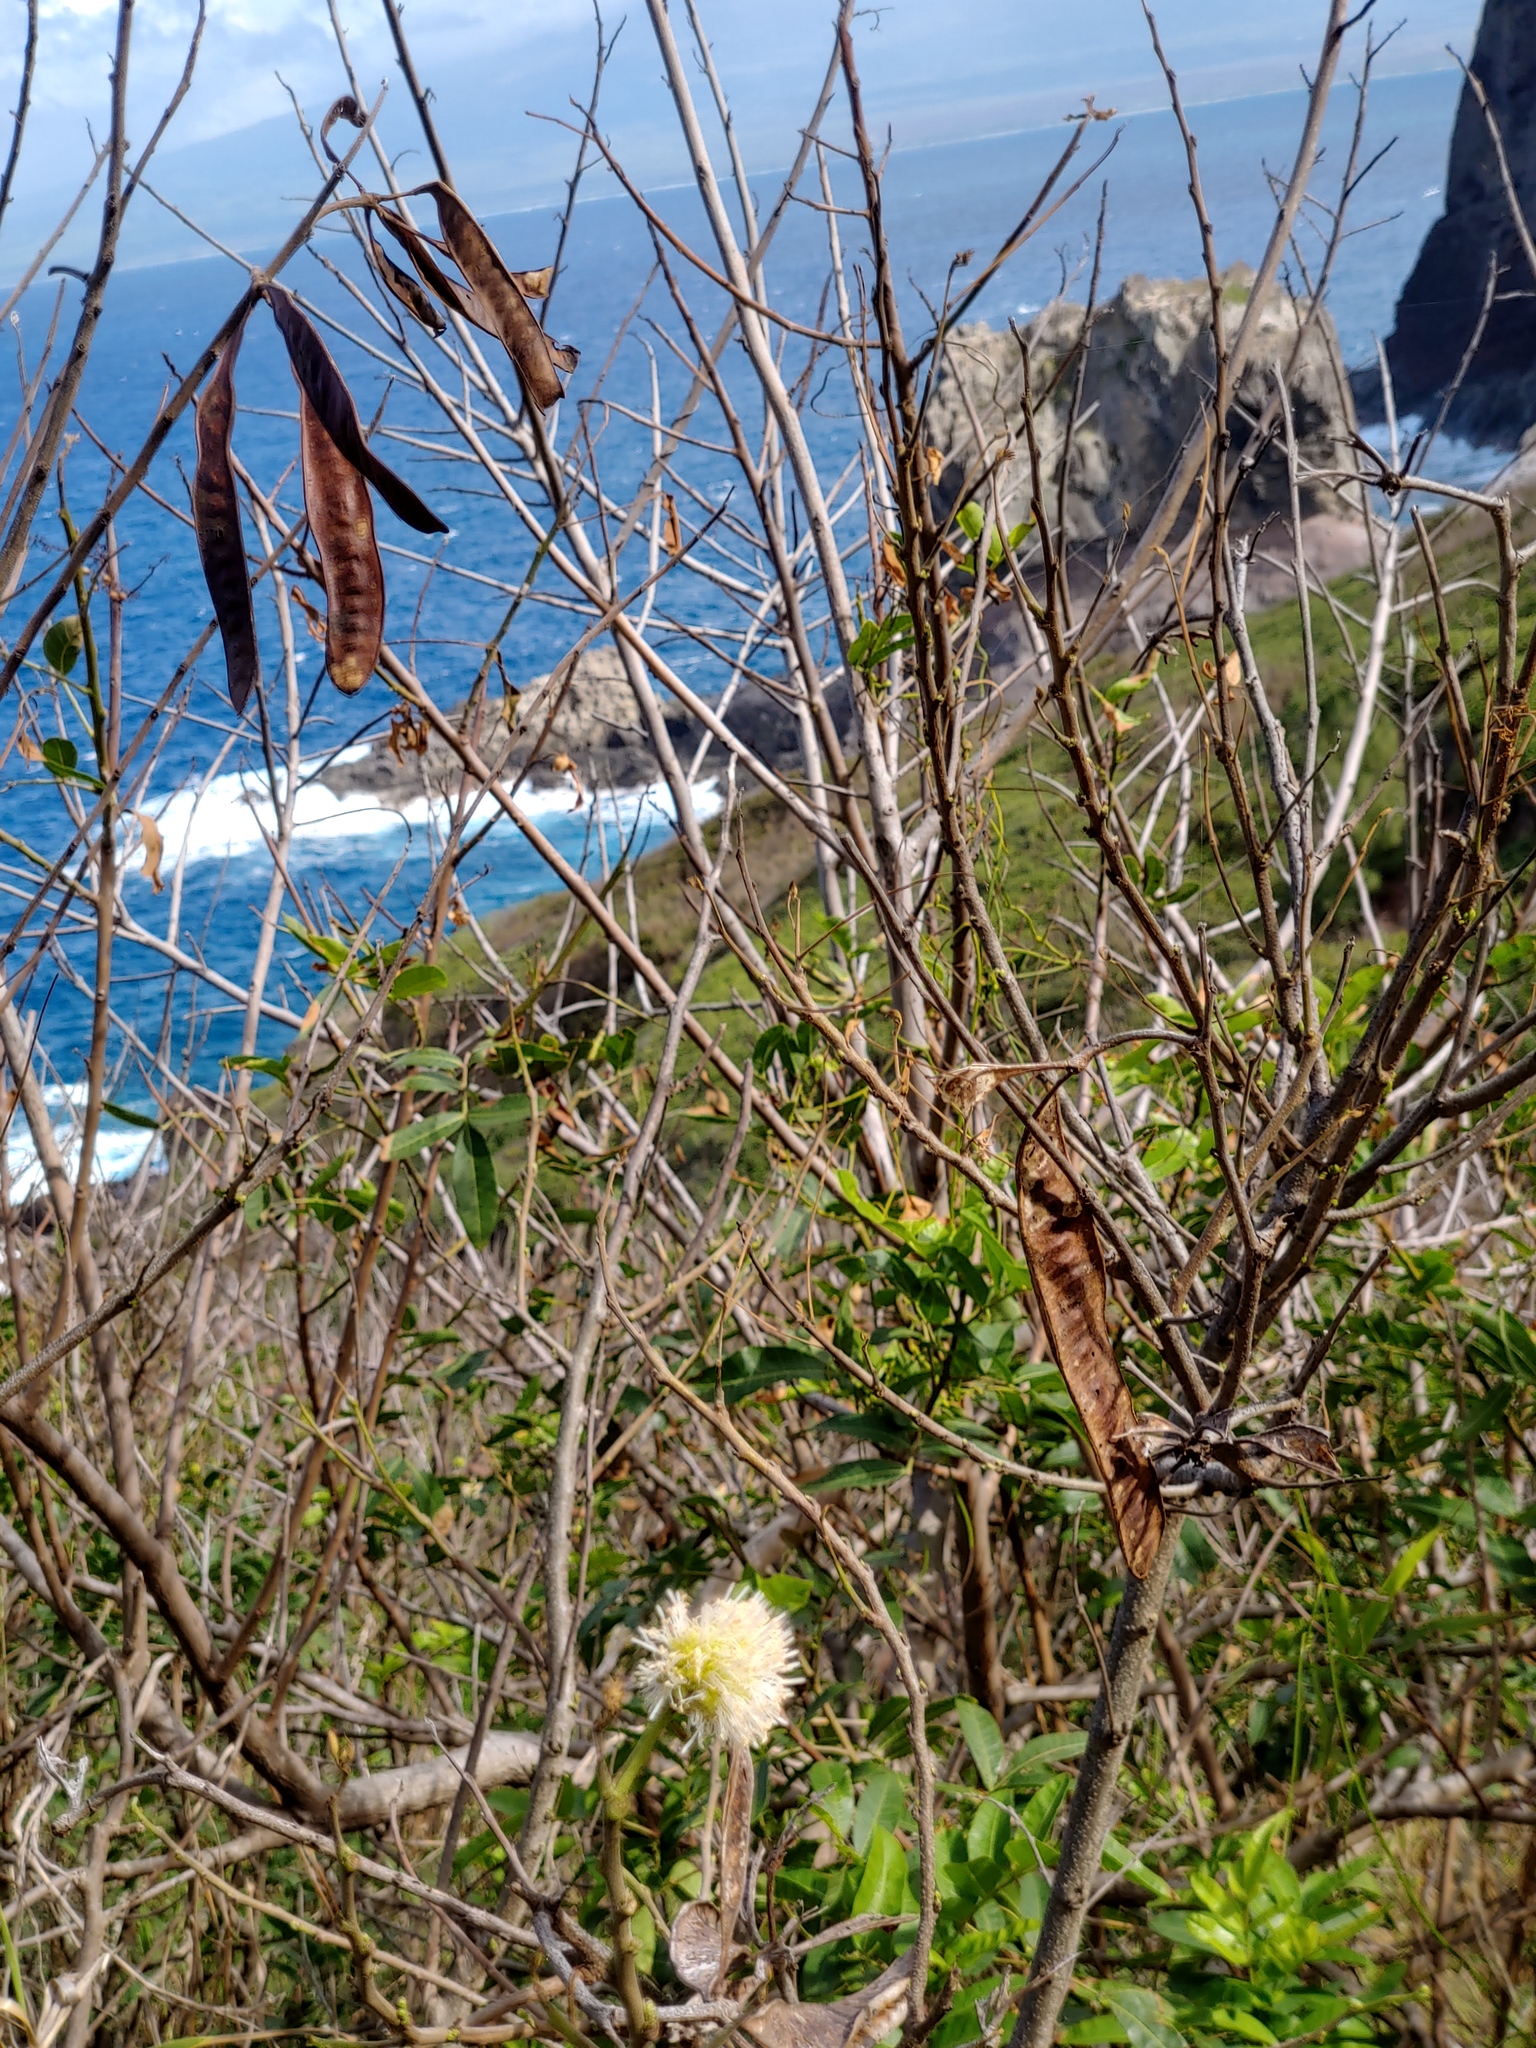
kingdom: Plantae
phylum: Tracheophyta
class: Magnoliopsida
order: Fabales
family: Fabaceae
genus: Leucaena
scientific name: Leucaena leucocephala
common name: White leadtree
